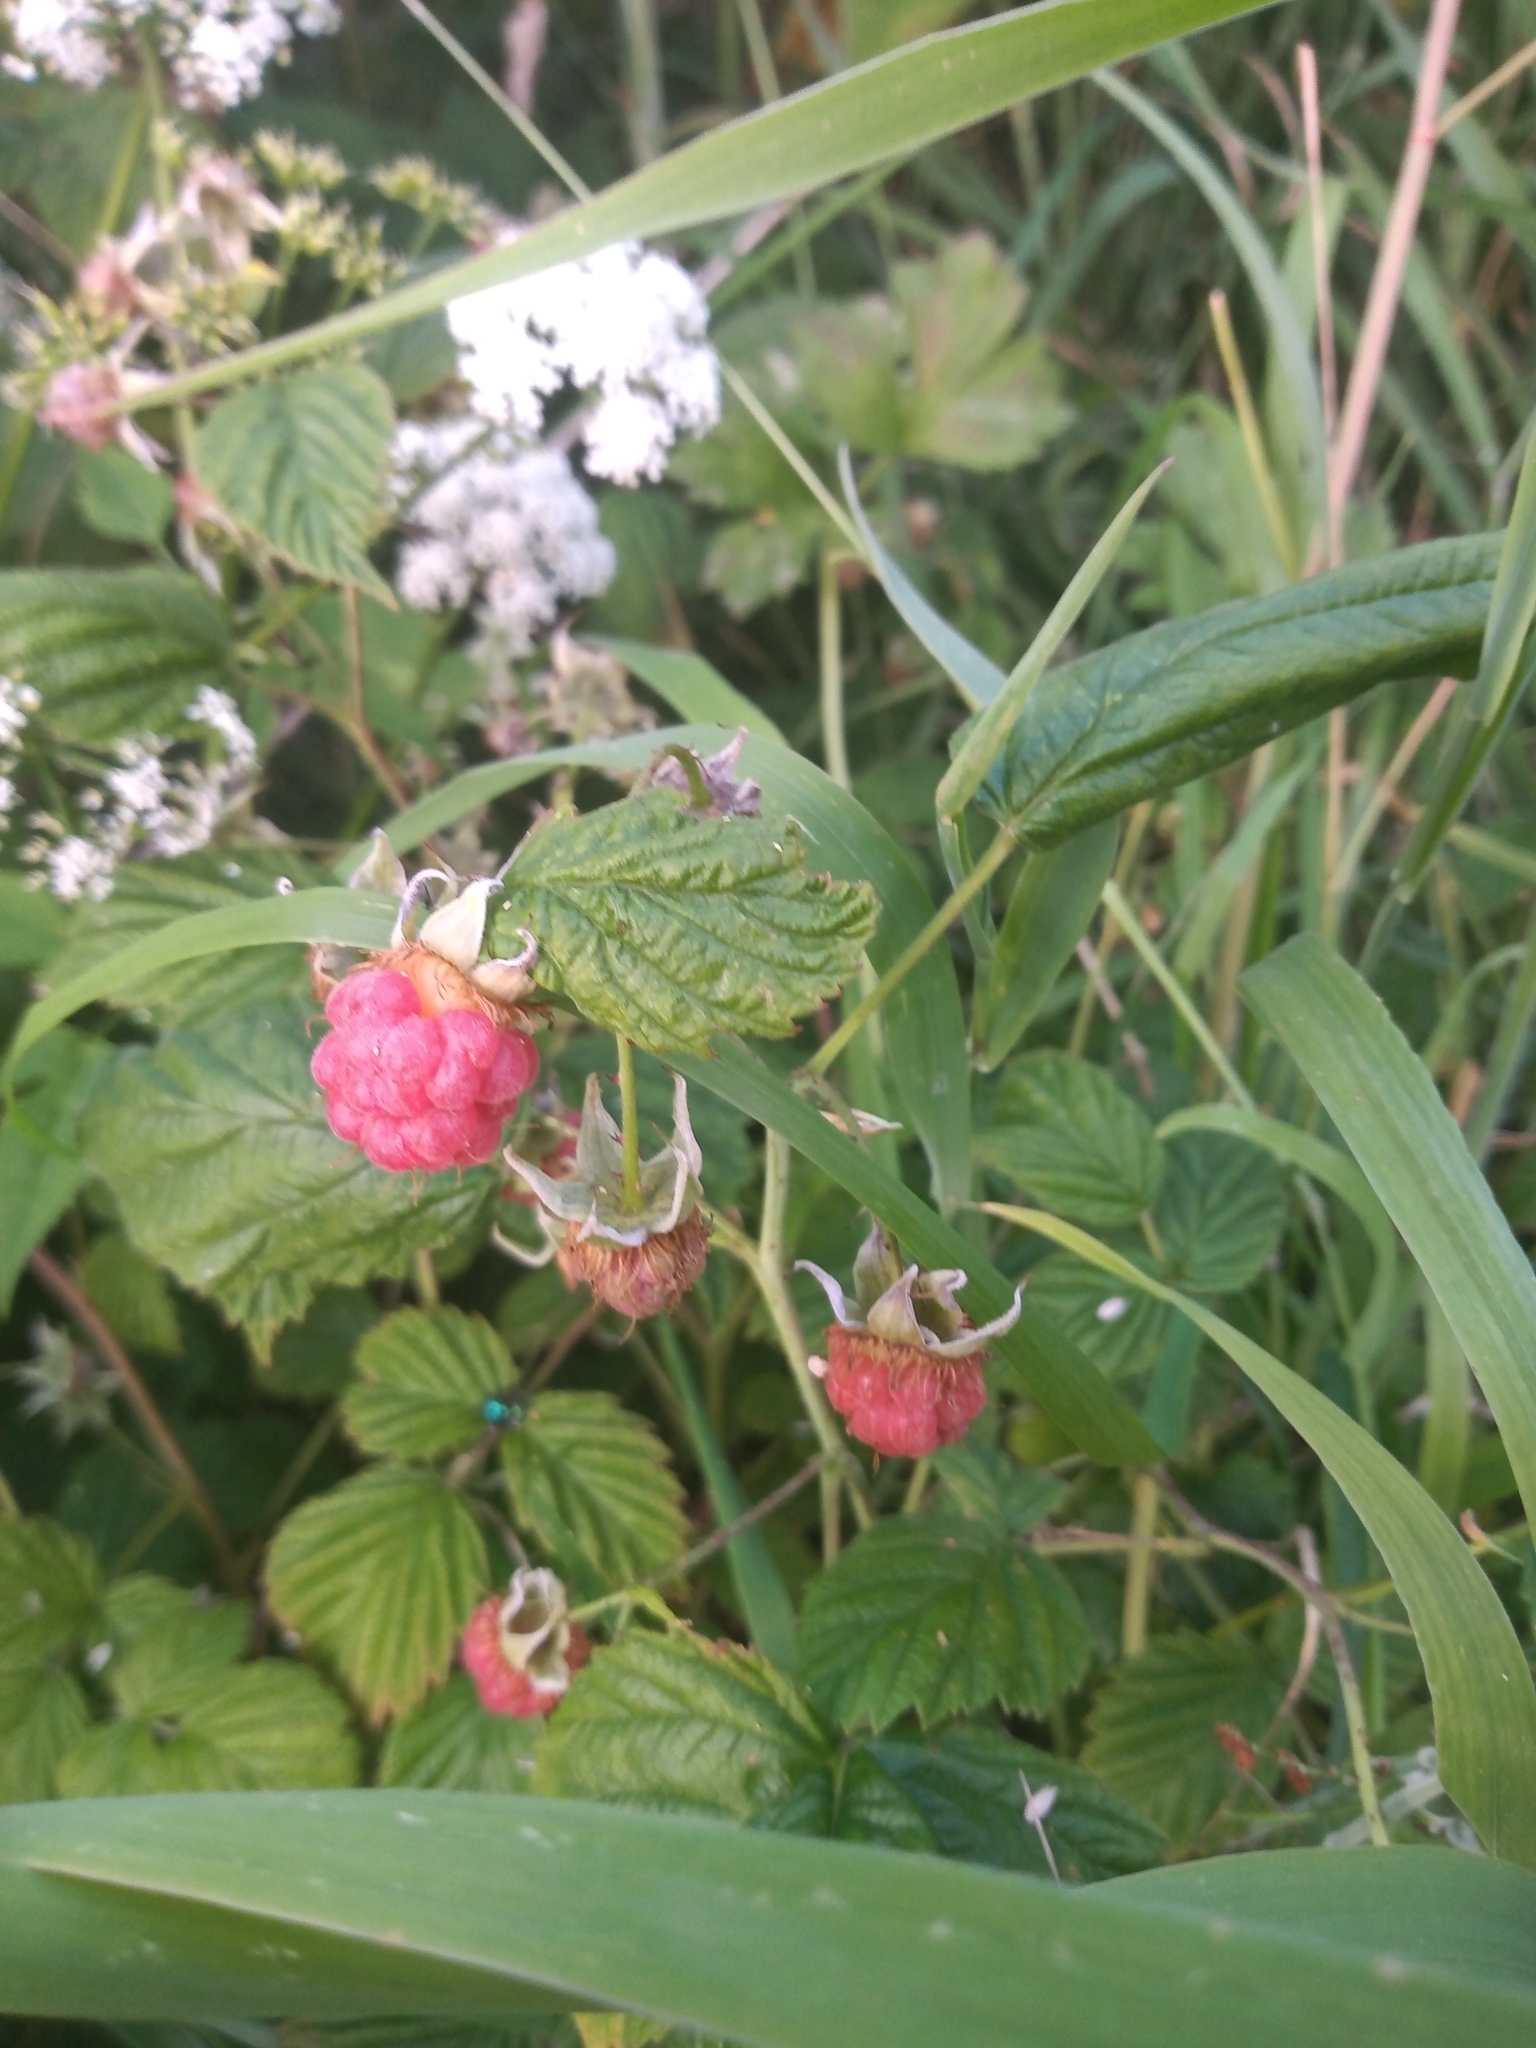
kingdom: Plantae
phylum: Tracheophyta
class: Magnoliopsida
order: Rosales
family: Rosaceae
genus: Rubus
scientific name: Rubus idaeus
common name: Raspberry
